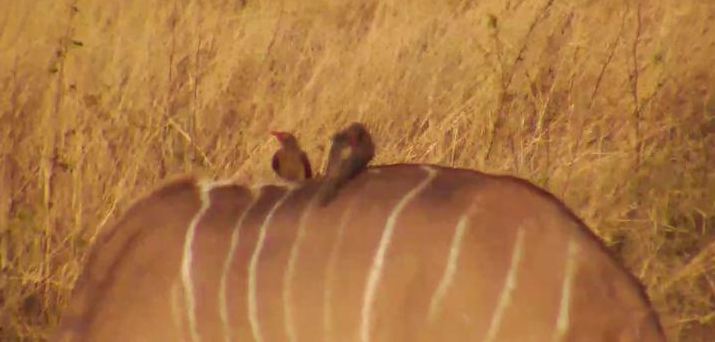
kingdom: Animalia
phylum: Chordata
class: Aves
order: Passeriformes
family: Buphagidae
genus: Buphagus
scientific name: Buphagus erythrorhynchus
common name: Red-billed oxpecker
